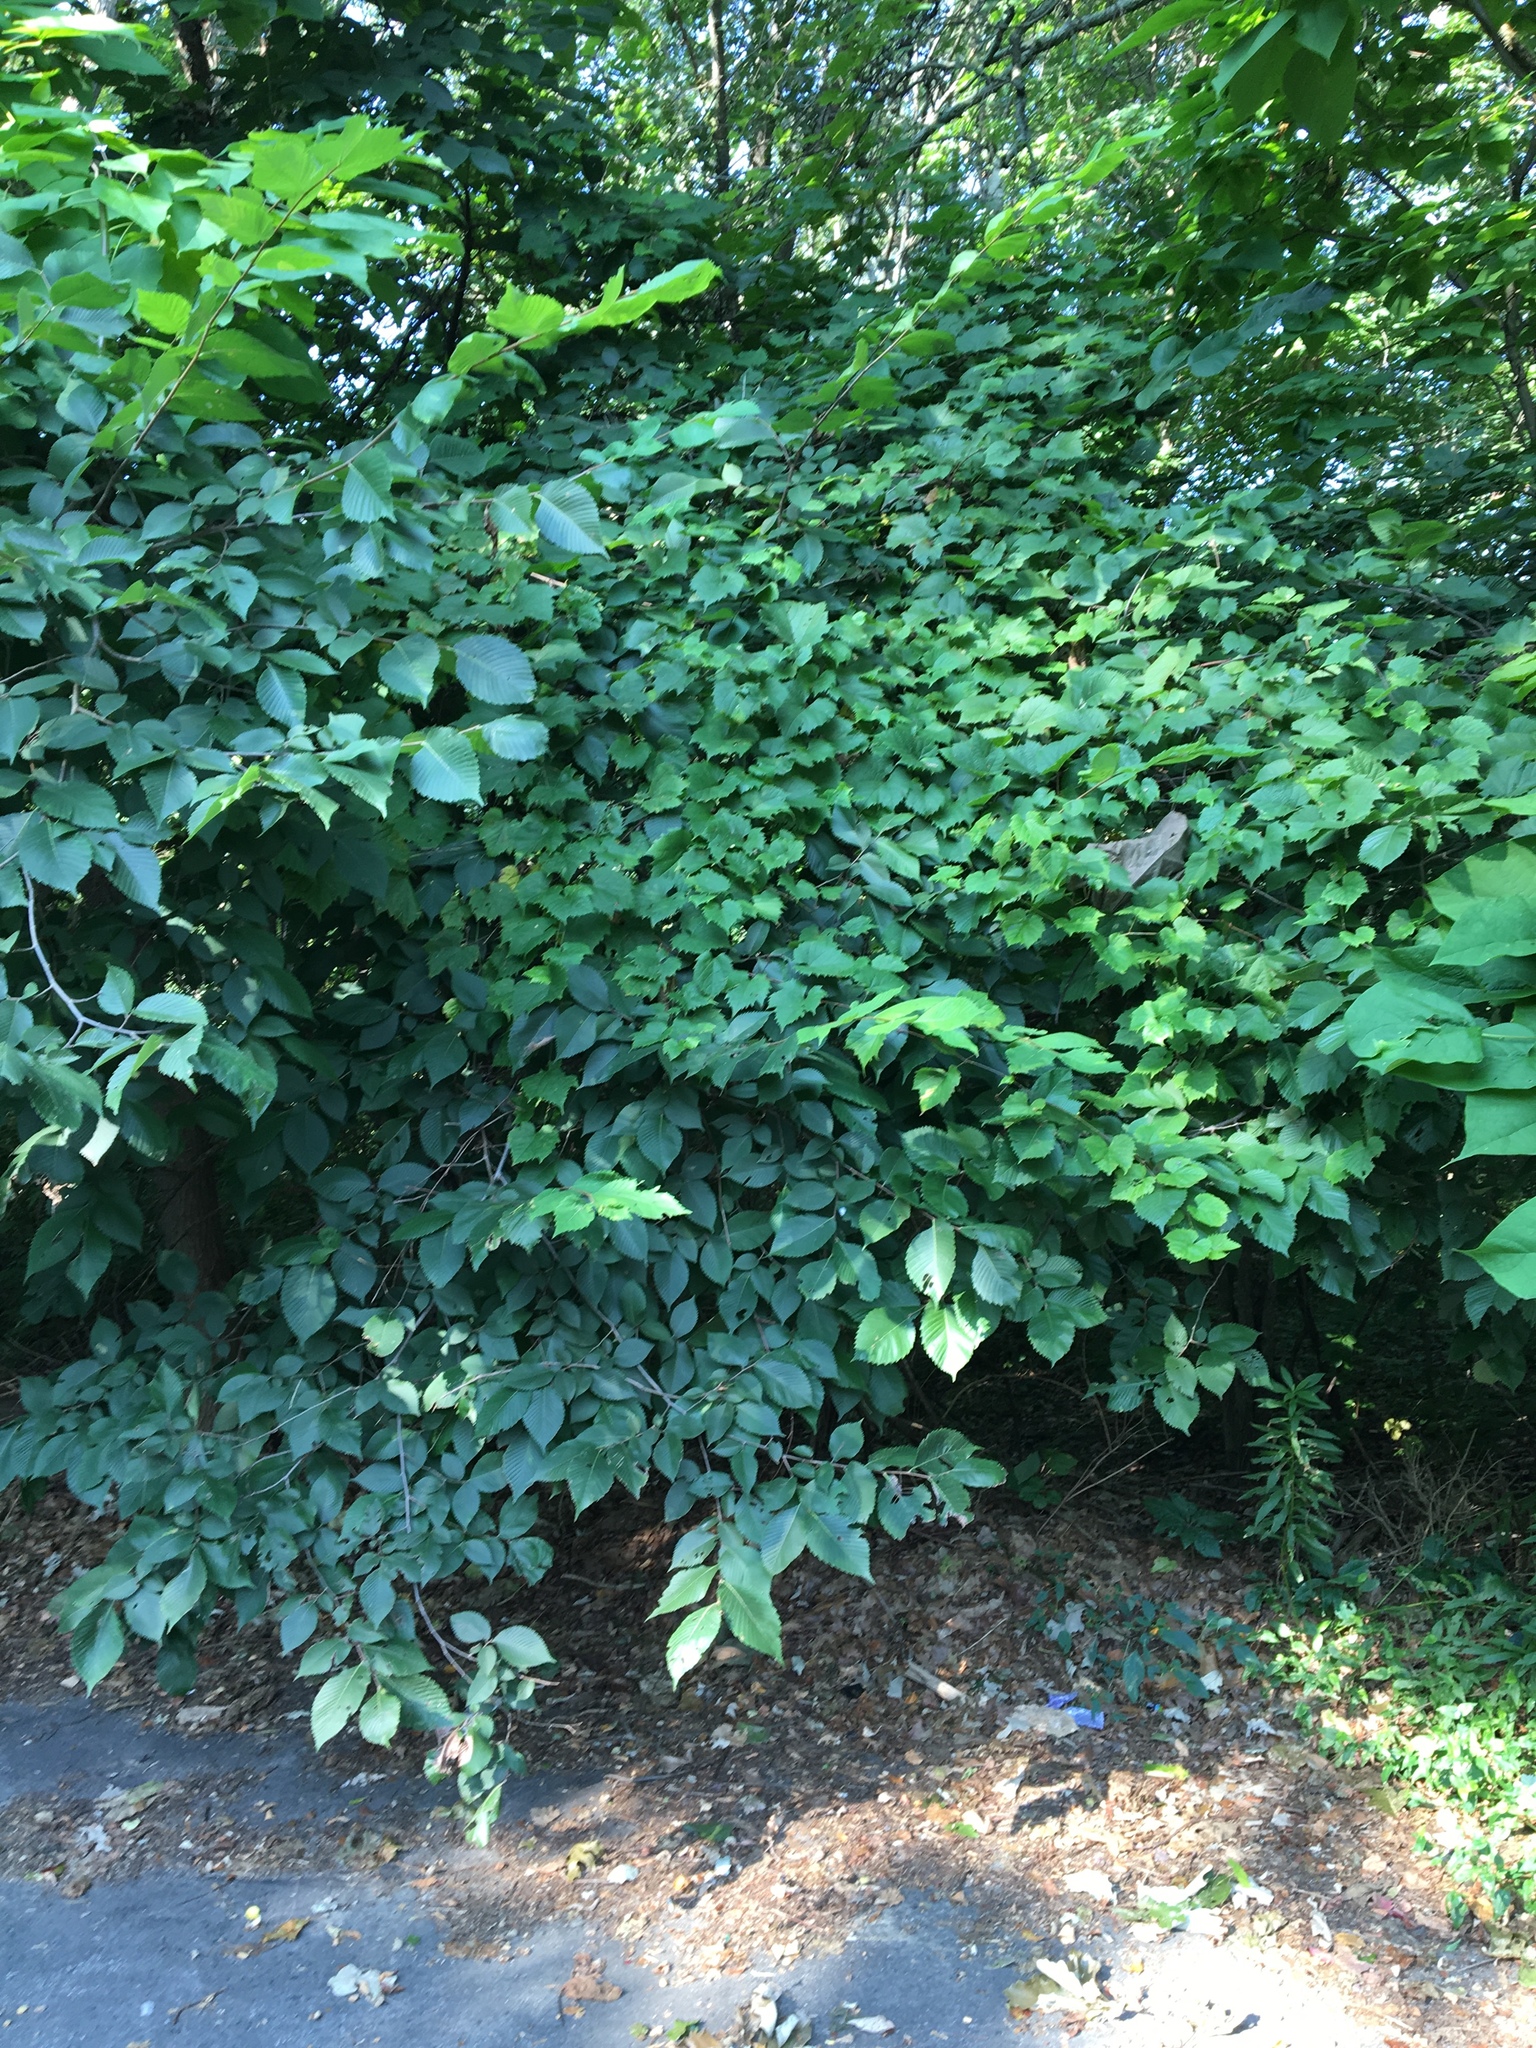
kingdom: Plantae
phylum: Tracheophyta
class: Magnoliopsida
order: Rosales
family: Ulmaceae
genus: Ulmus
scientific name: Ulmus americana
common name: American elm
